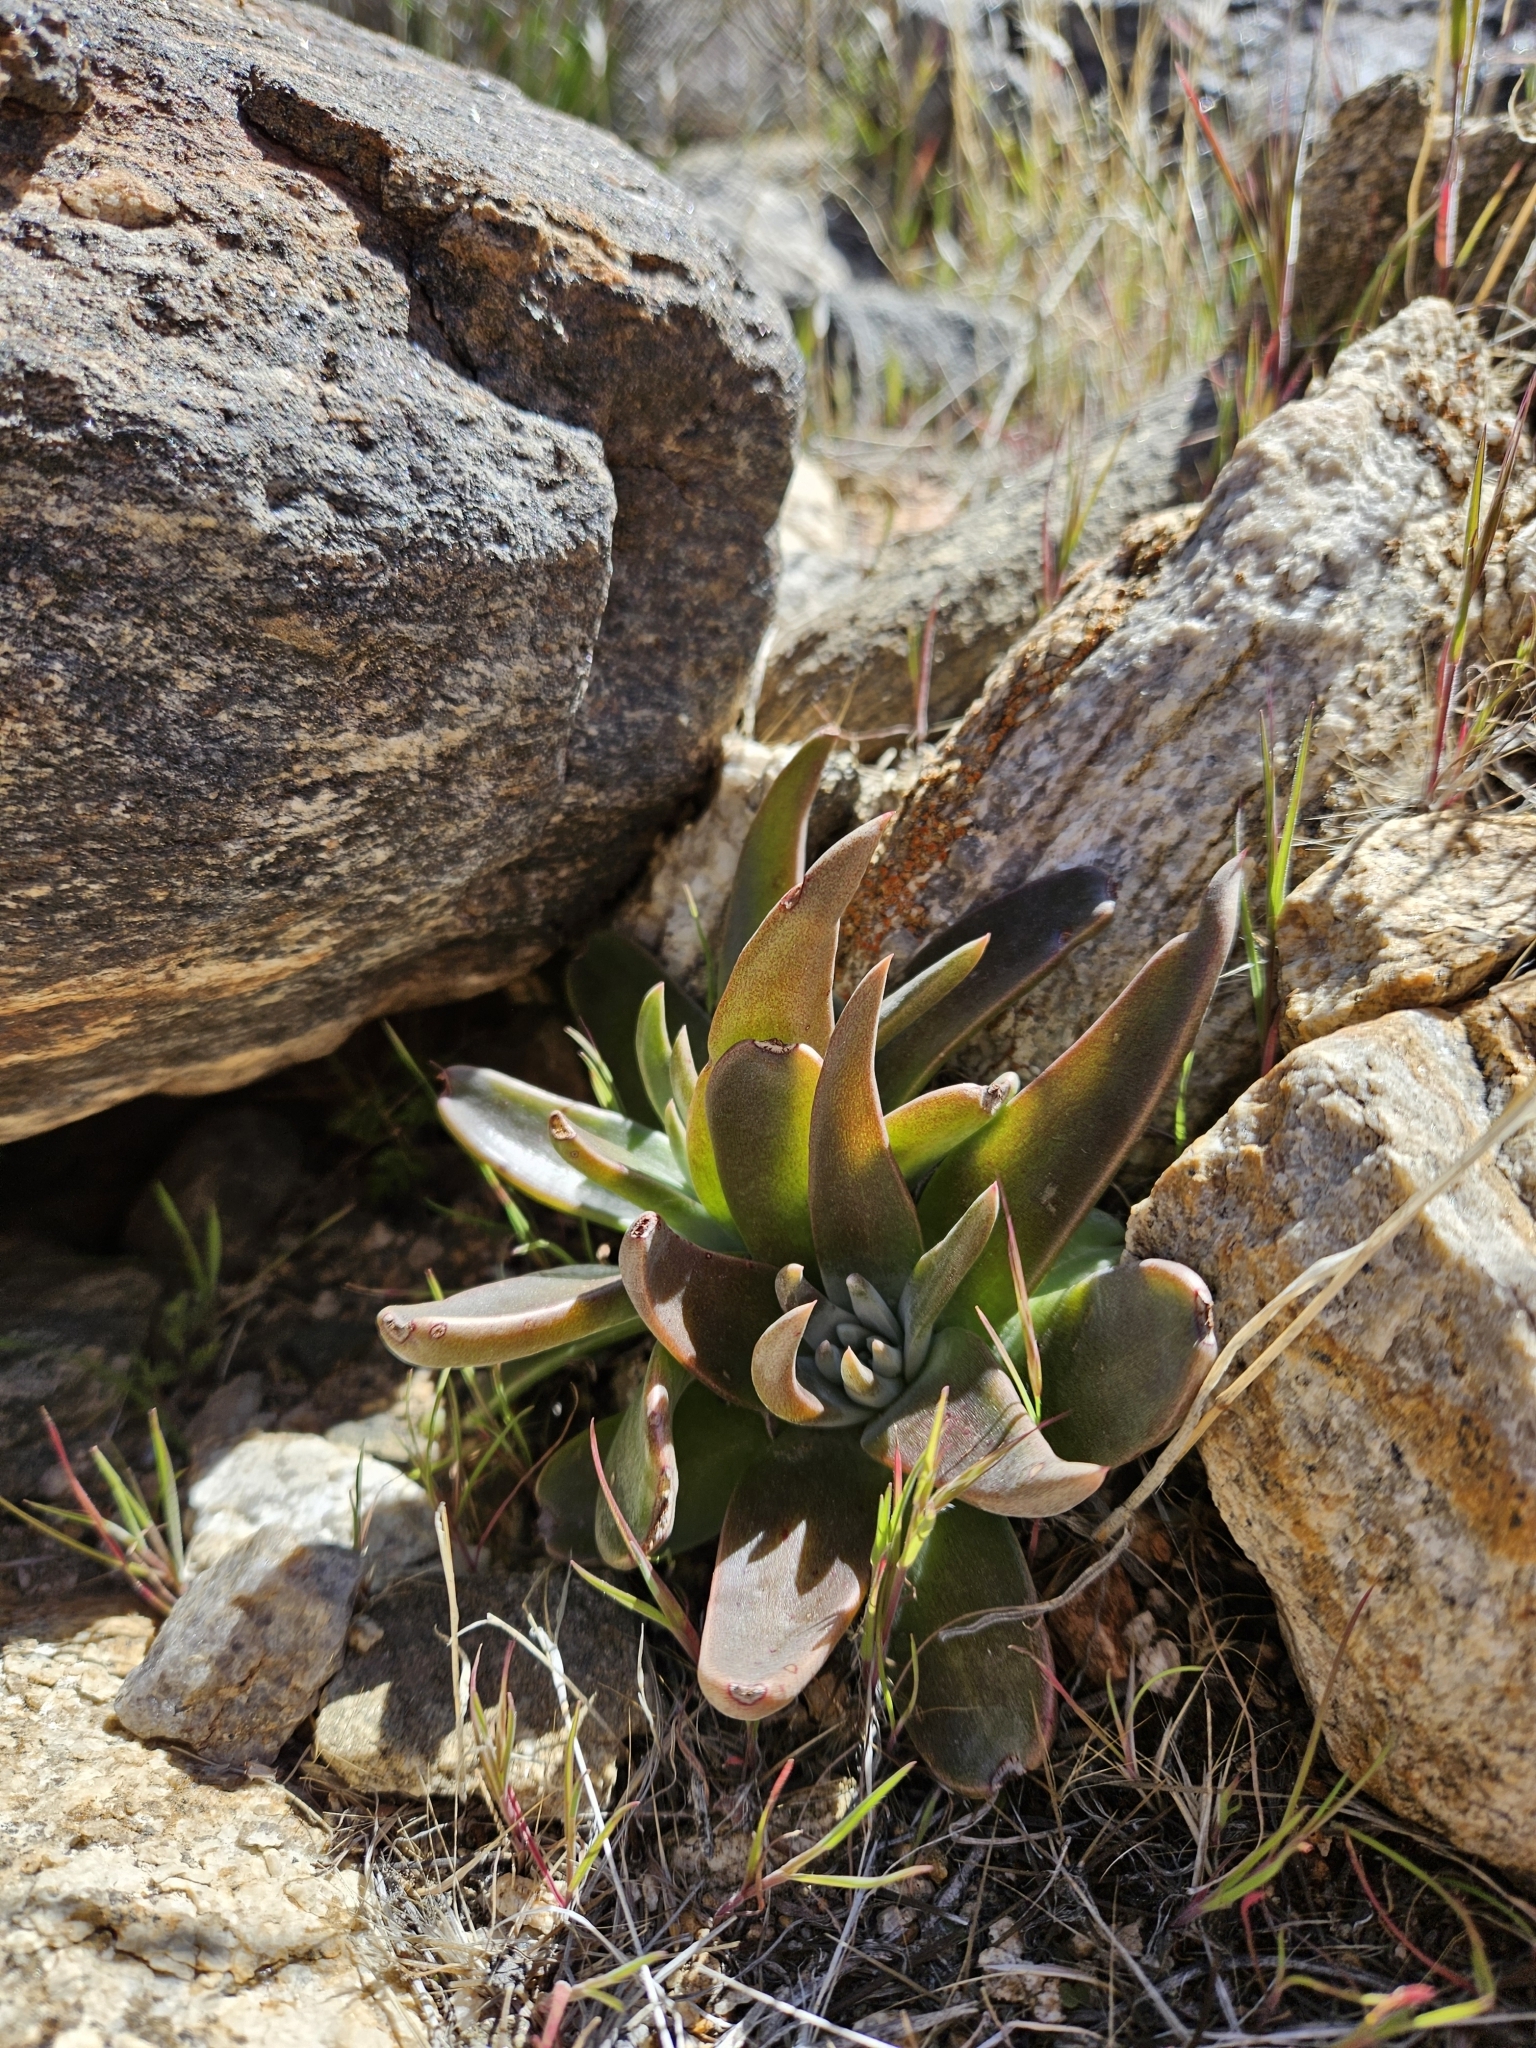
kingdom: Plantae
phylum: Tracheophyta
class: Magnoliopsida
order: Saxifragales
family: Crassulaceae
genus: Dudleya
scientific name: Dudleya saxosa
